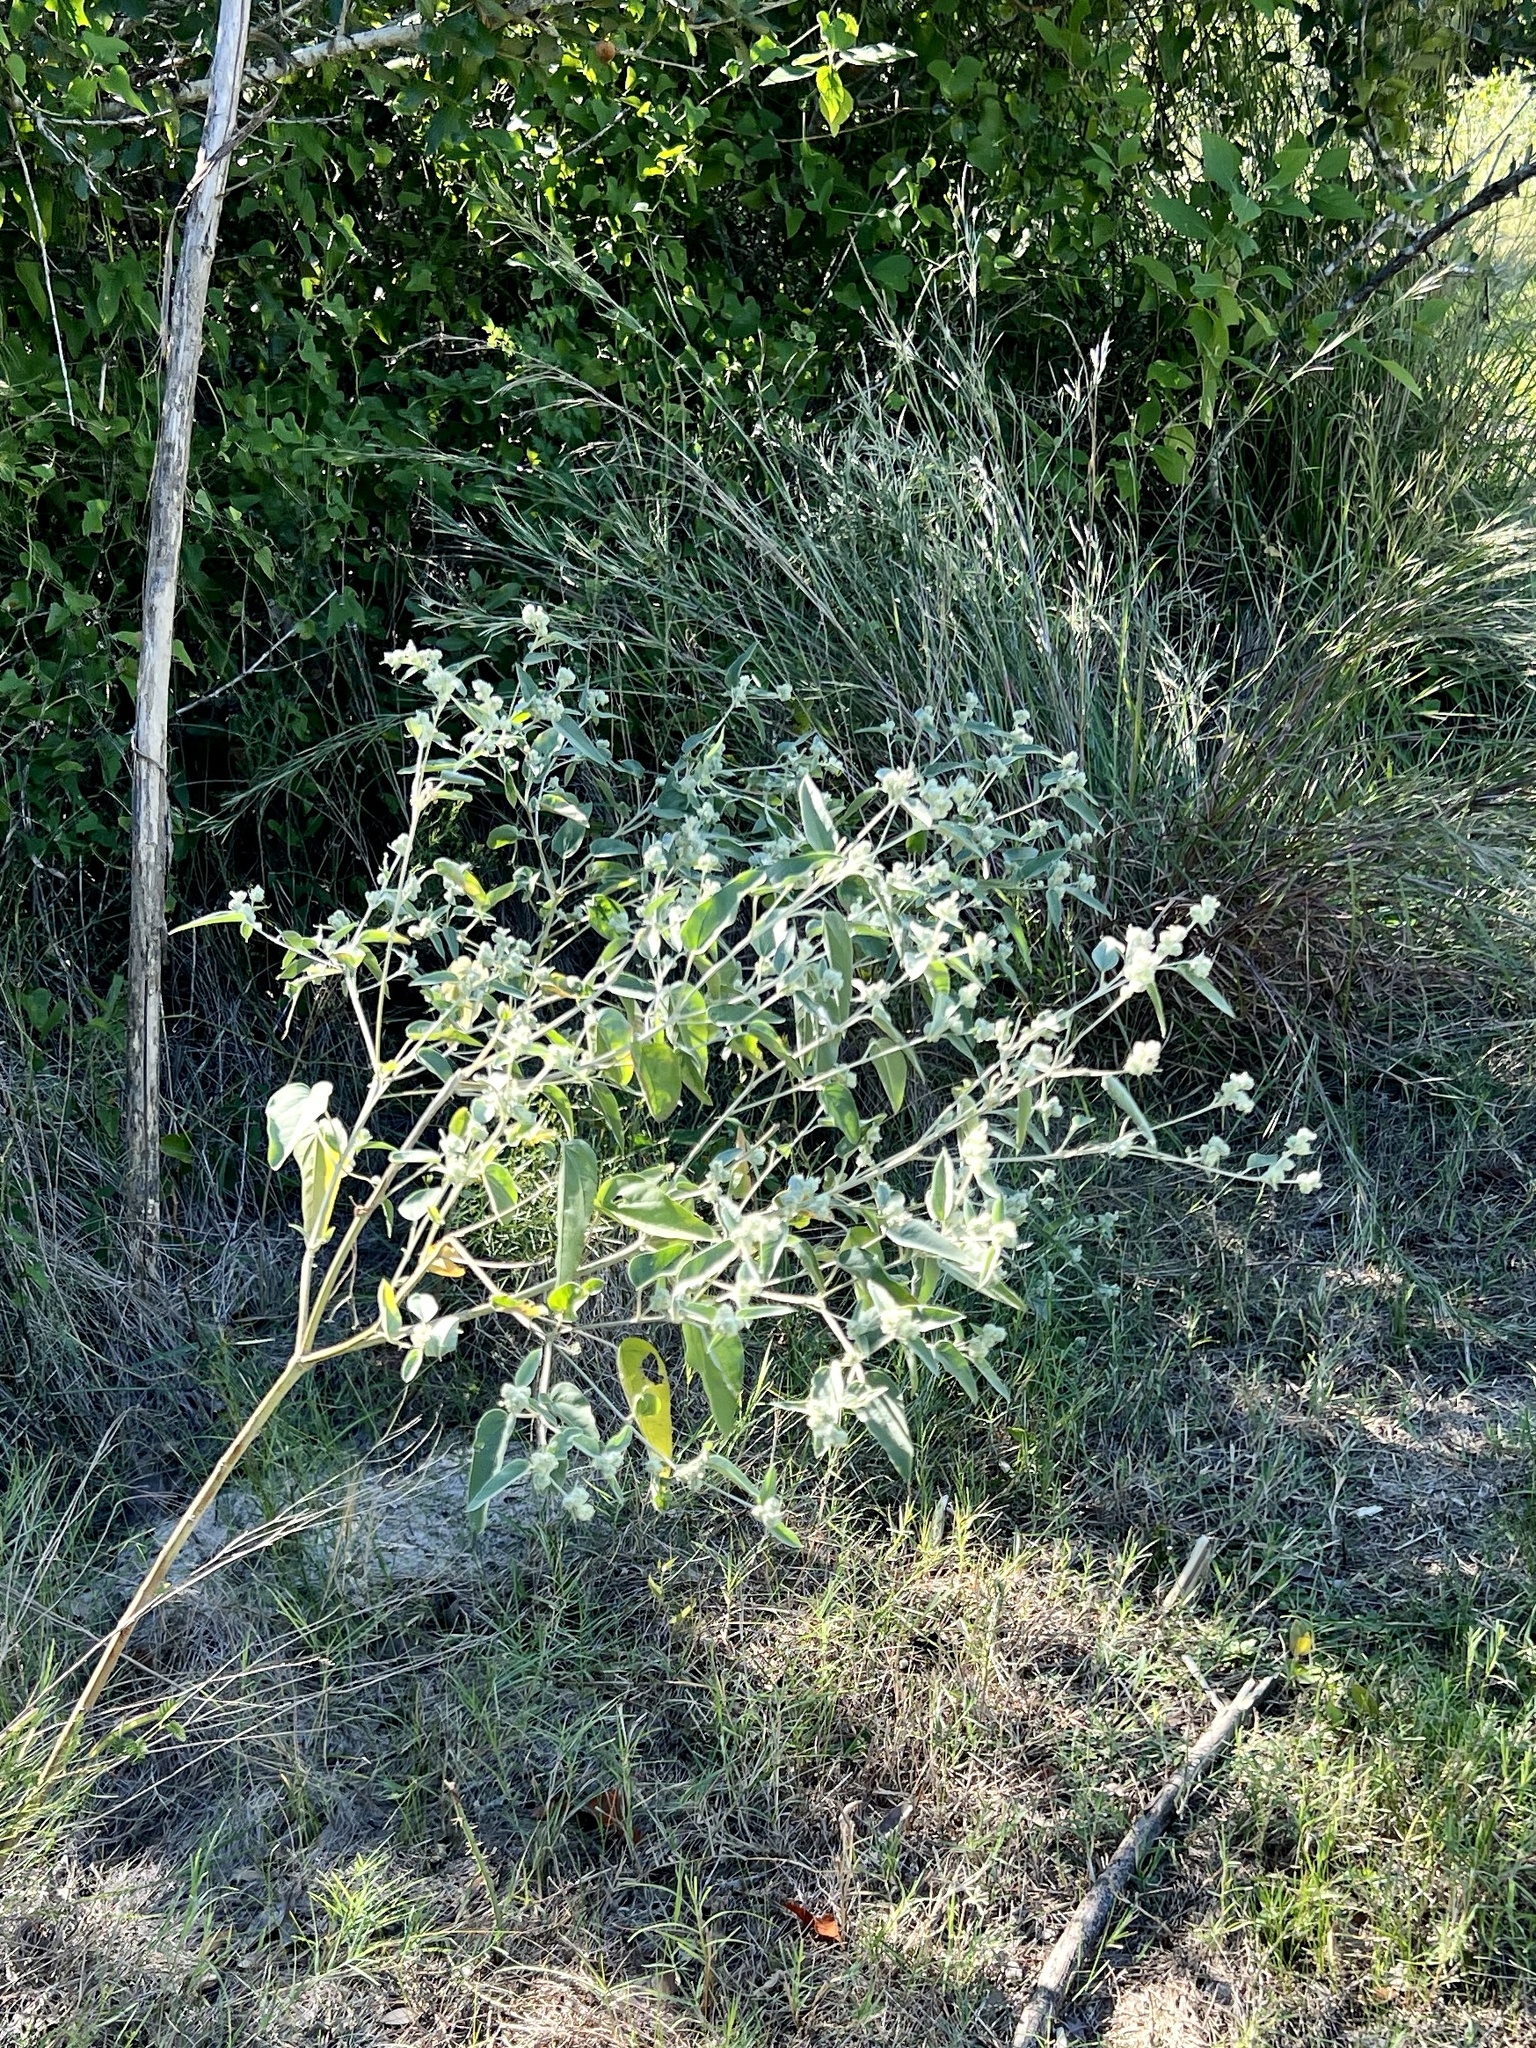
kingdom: Plantae
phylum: Tracheophyta
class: Magnoliopsida
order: Malpighiales
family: Euphorbiaceae
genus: Croton
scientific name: Croton heptalon
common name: Woolly croton
